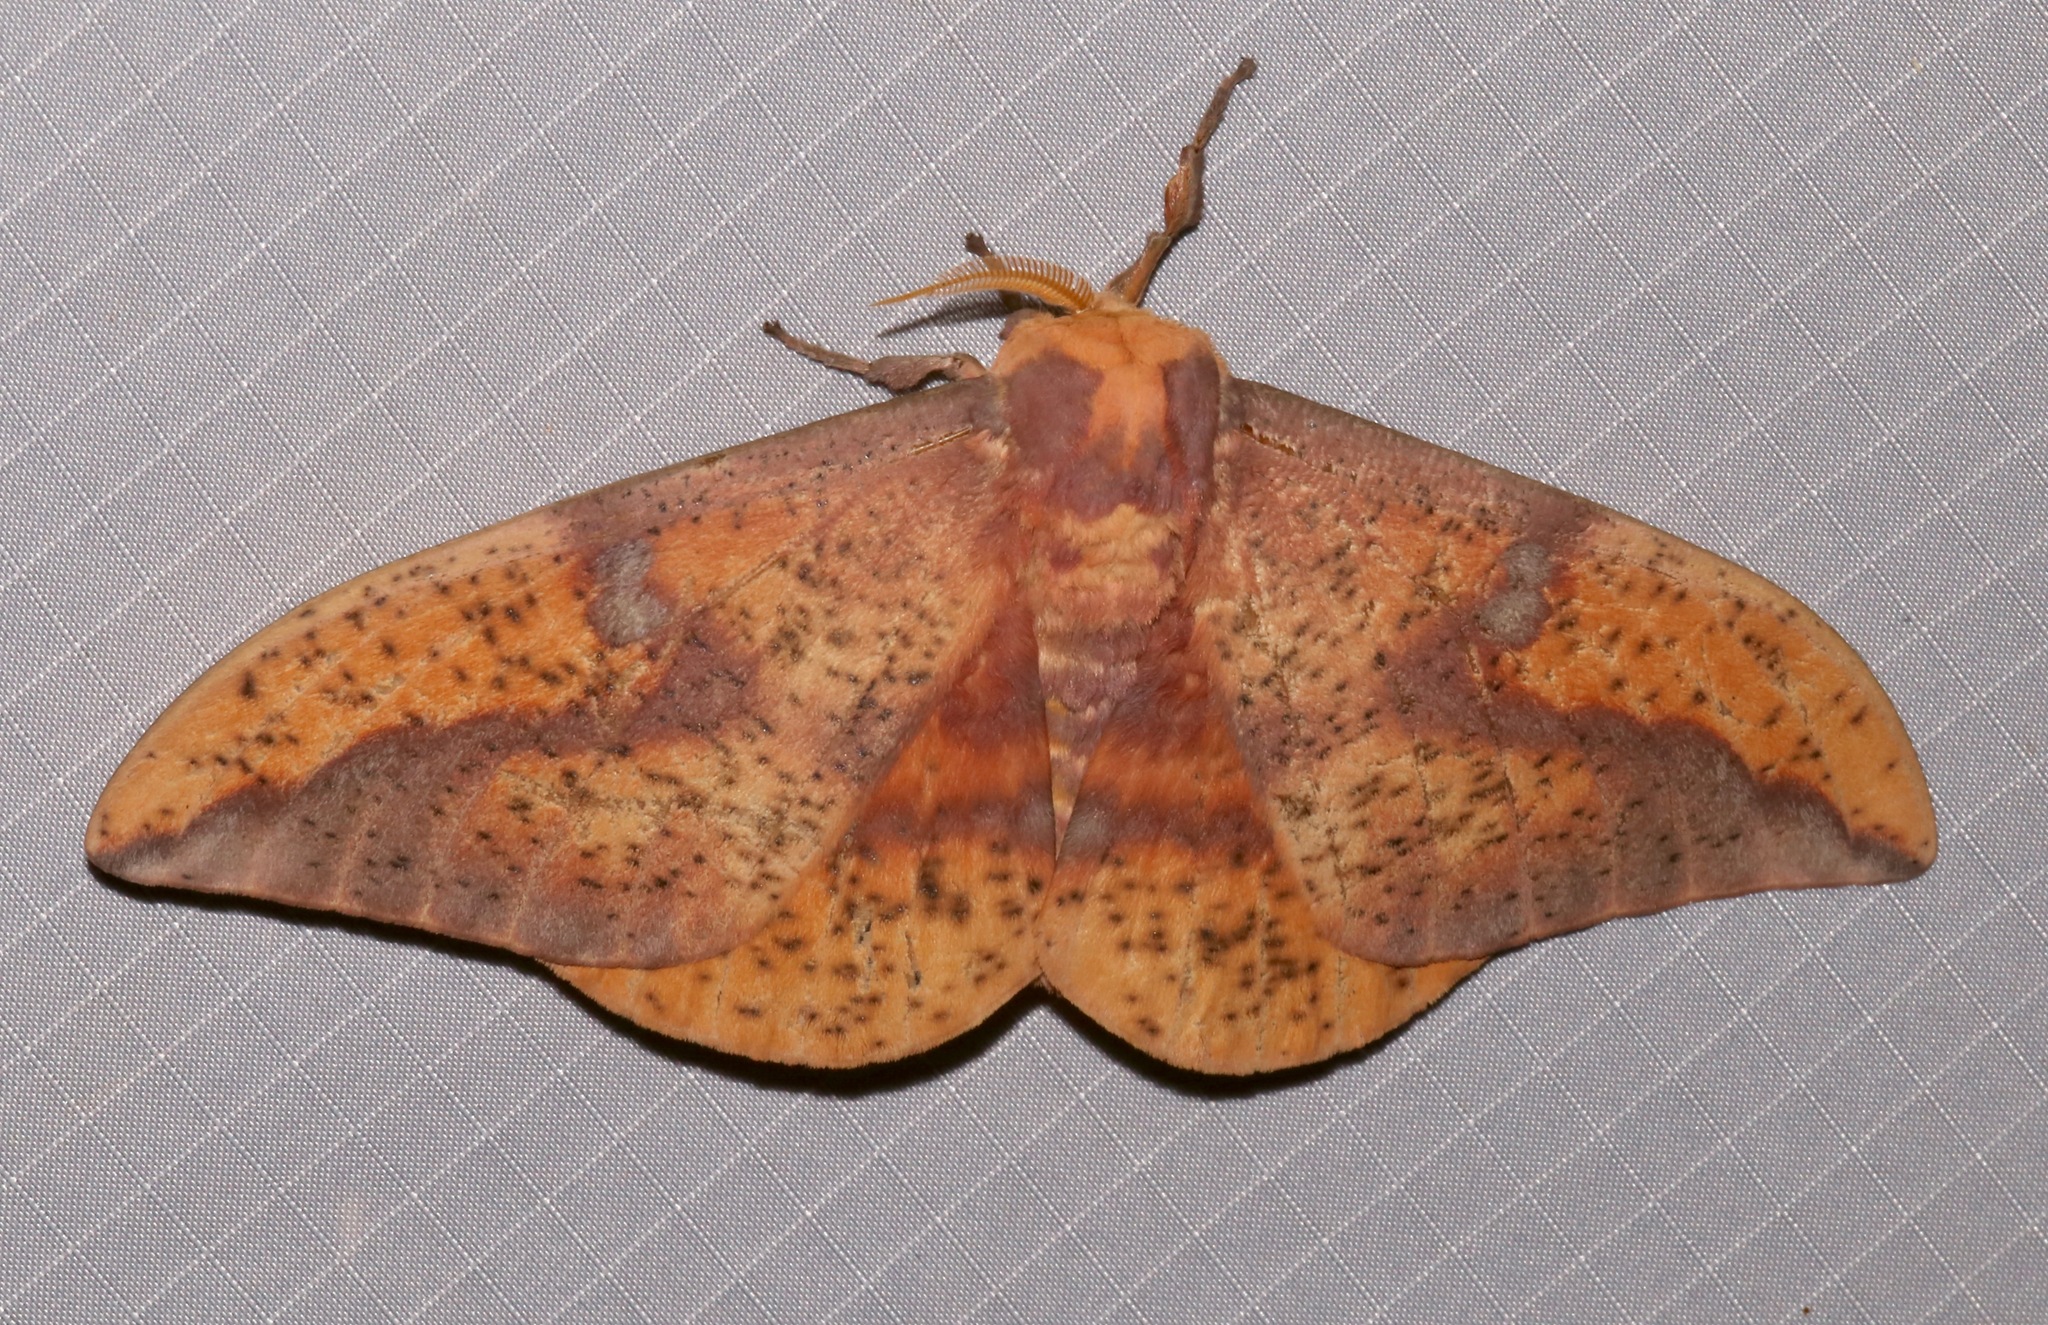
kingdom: Animalia
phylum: Arthropoda
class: Insecta
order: Lepidoptera
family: Saturniidae
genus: Eacles
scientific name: Eacles oslari
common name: Oslar's imperial moth
